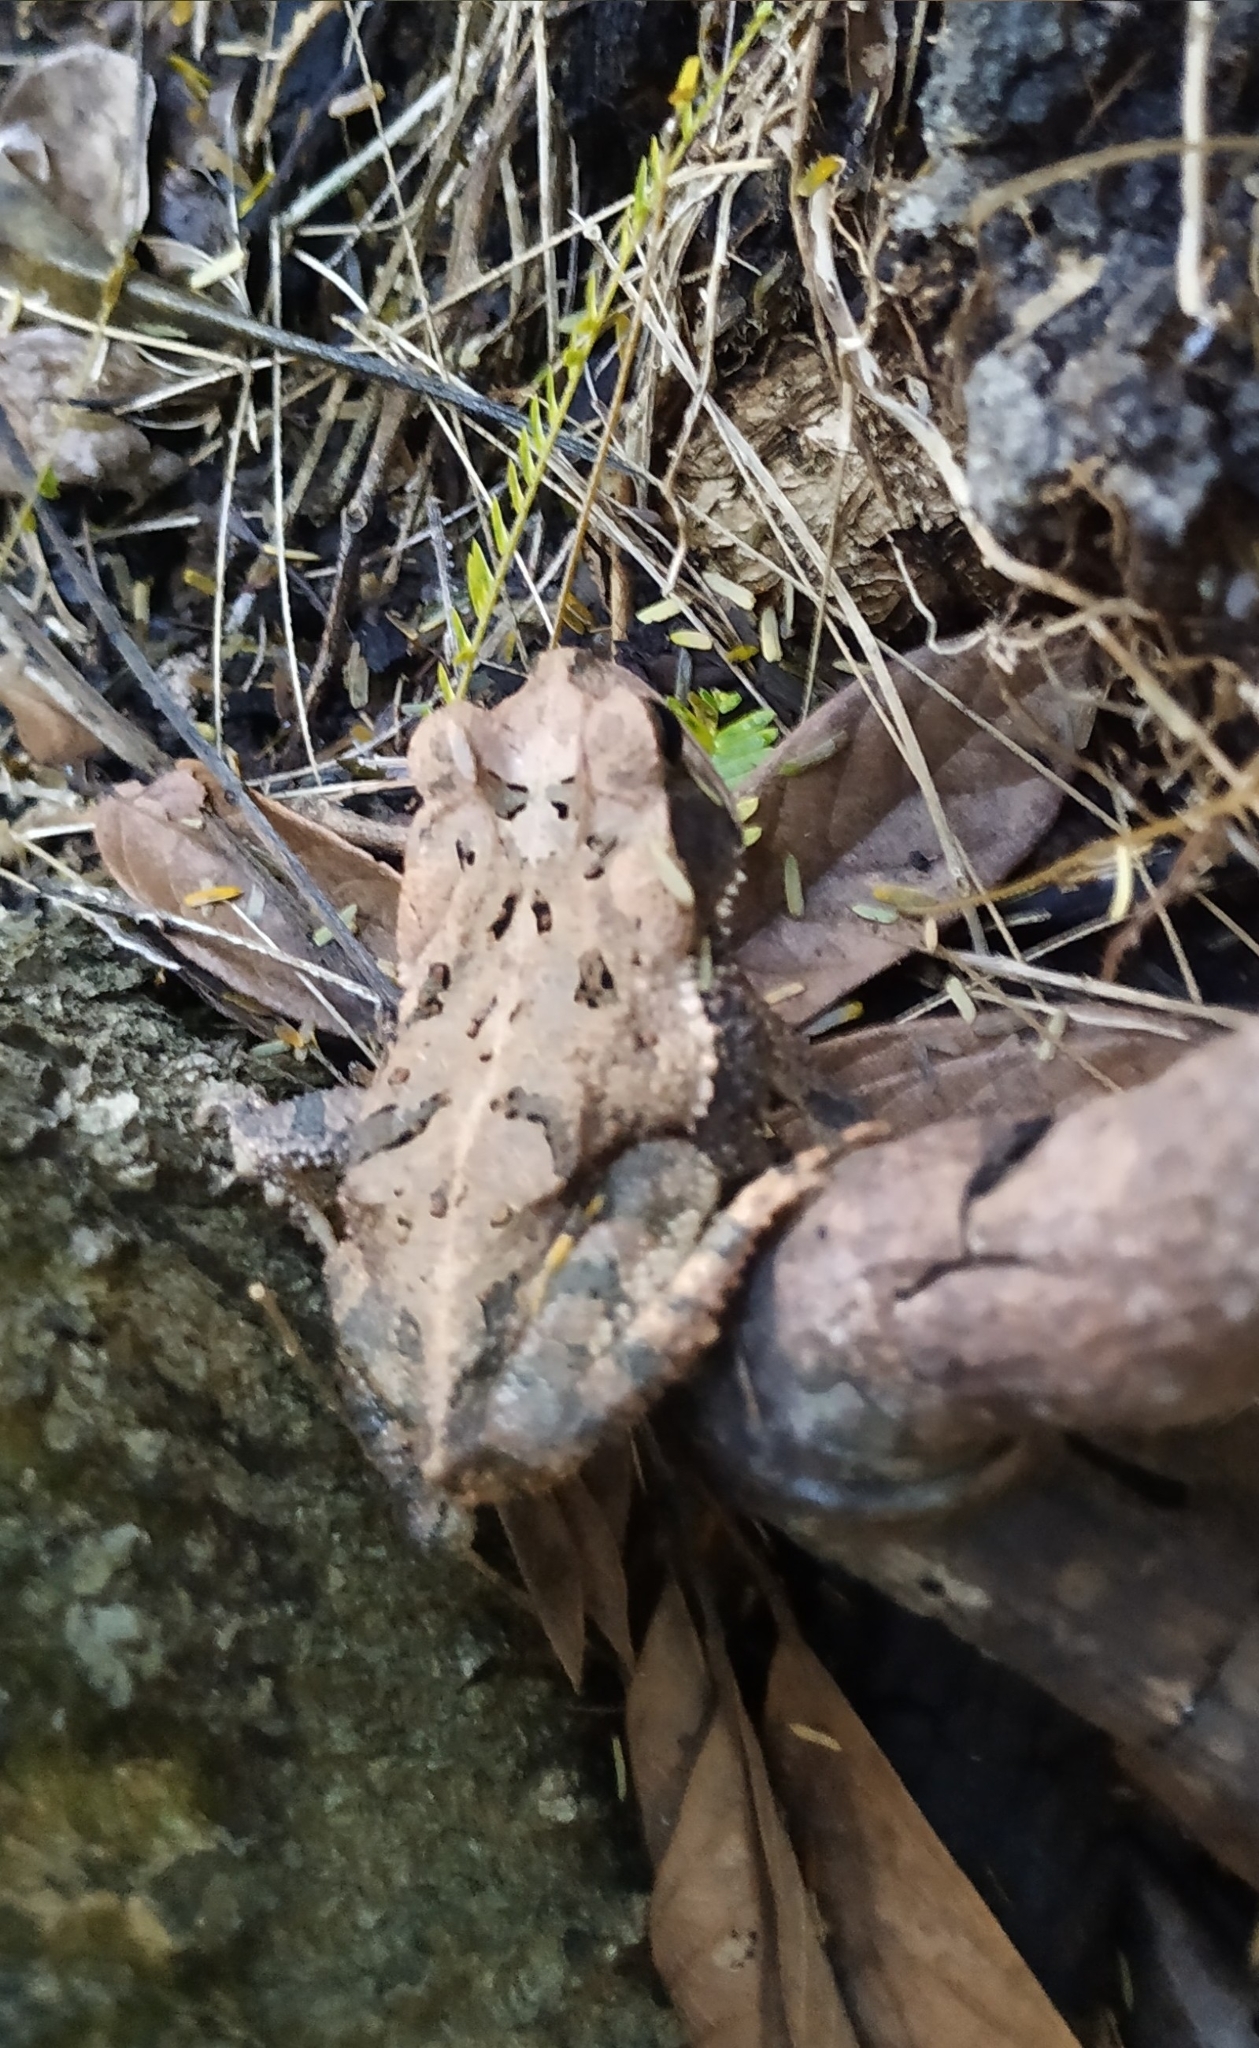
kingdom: Animalia
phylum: Chordata
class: Amphibia
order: Anura
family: Bufonidae
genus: Incilius
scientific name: Incilius valliceps
